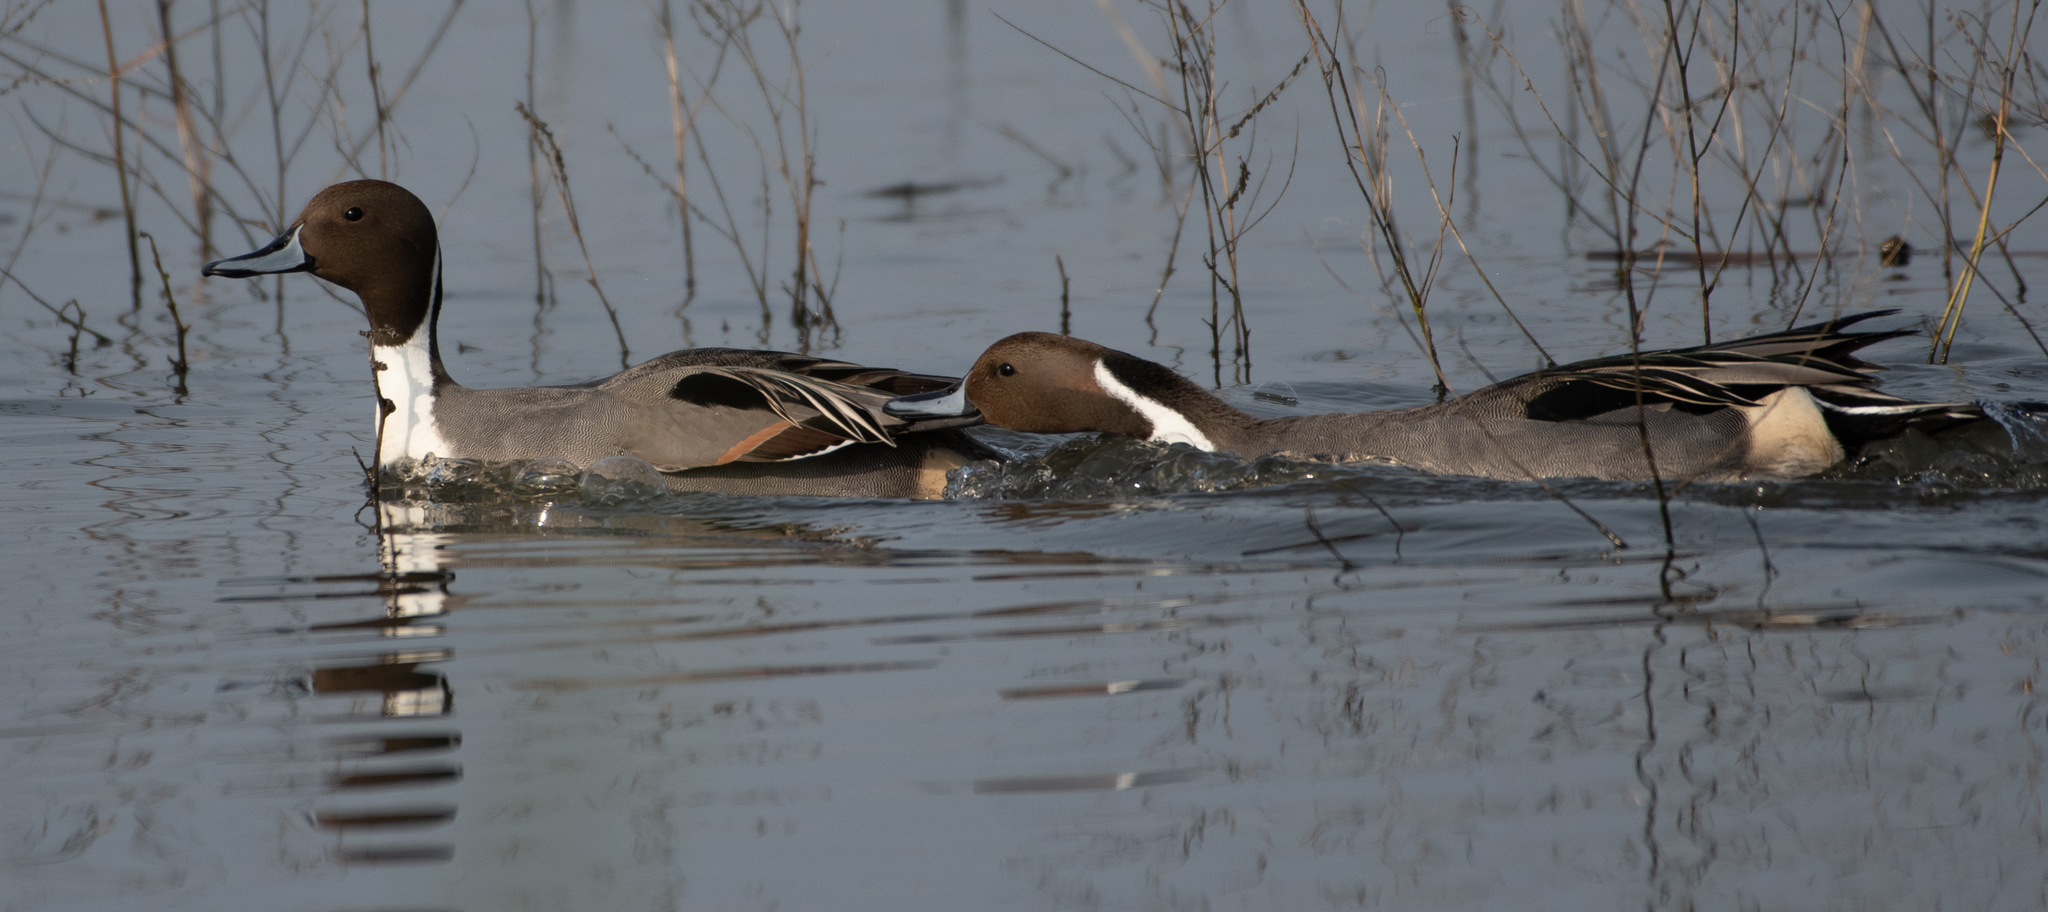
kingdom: Animalia
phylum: Chordata
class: Aves
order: Anseriformes
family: Anatidae
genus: Anas
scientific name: Anas acuta
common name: Northern pintail
